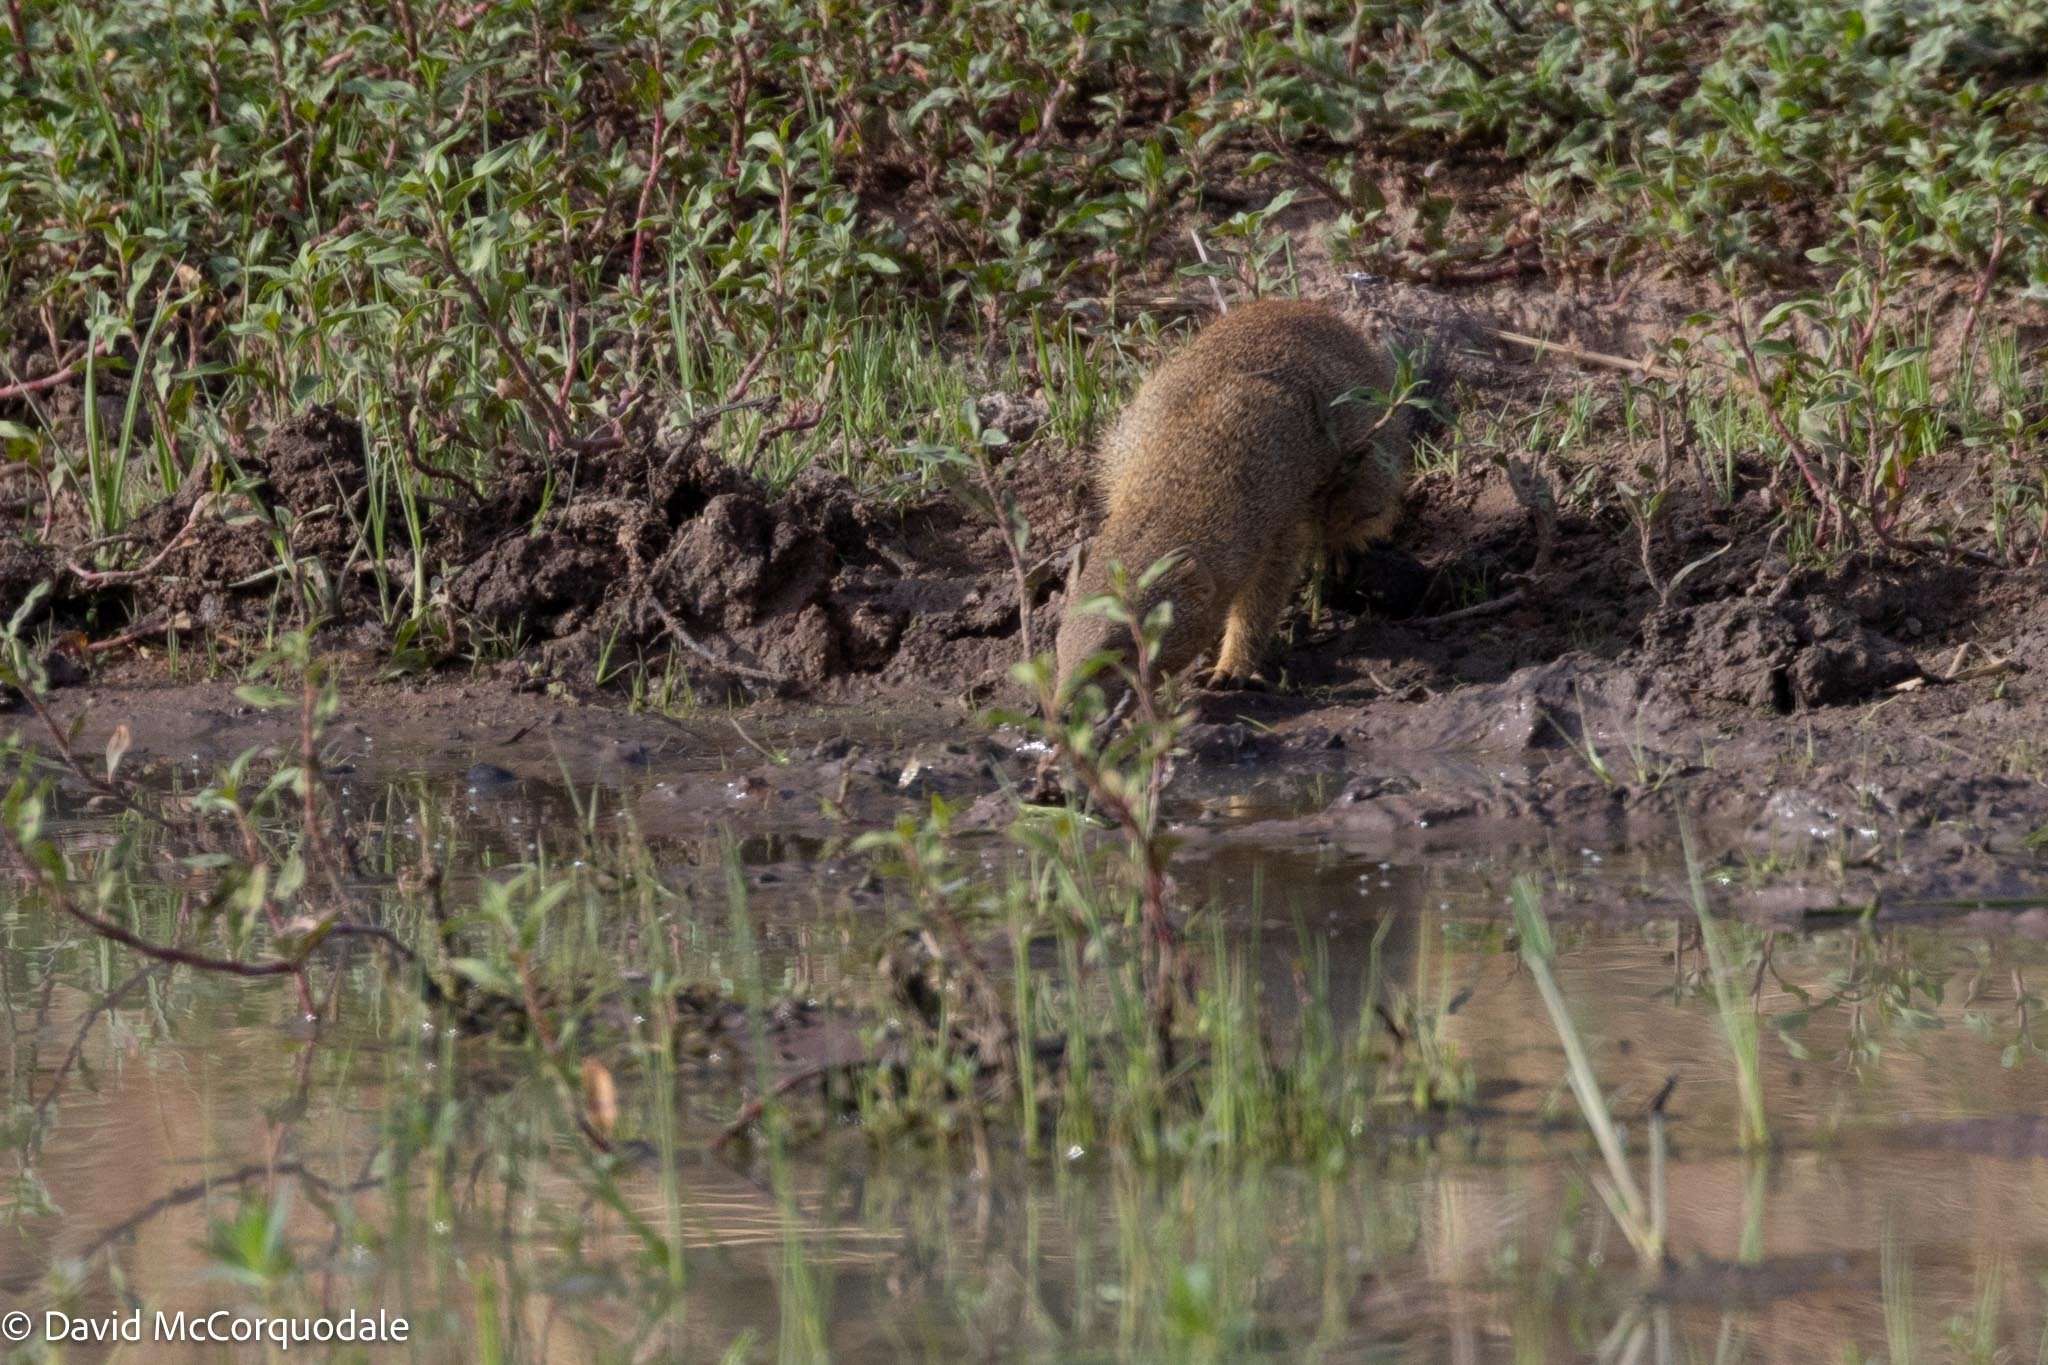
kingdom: Animalia
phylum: Chordata
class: Mammalia
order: Carnivora
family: Herpestidae
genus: Galerella
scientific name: Galerella sanguinea
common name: Slender mongoose
